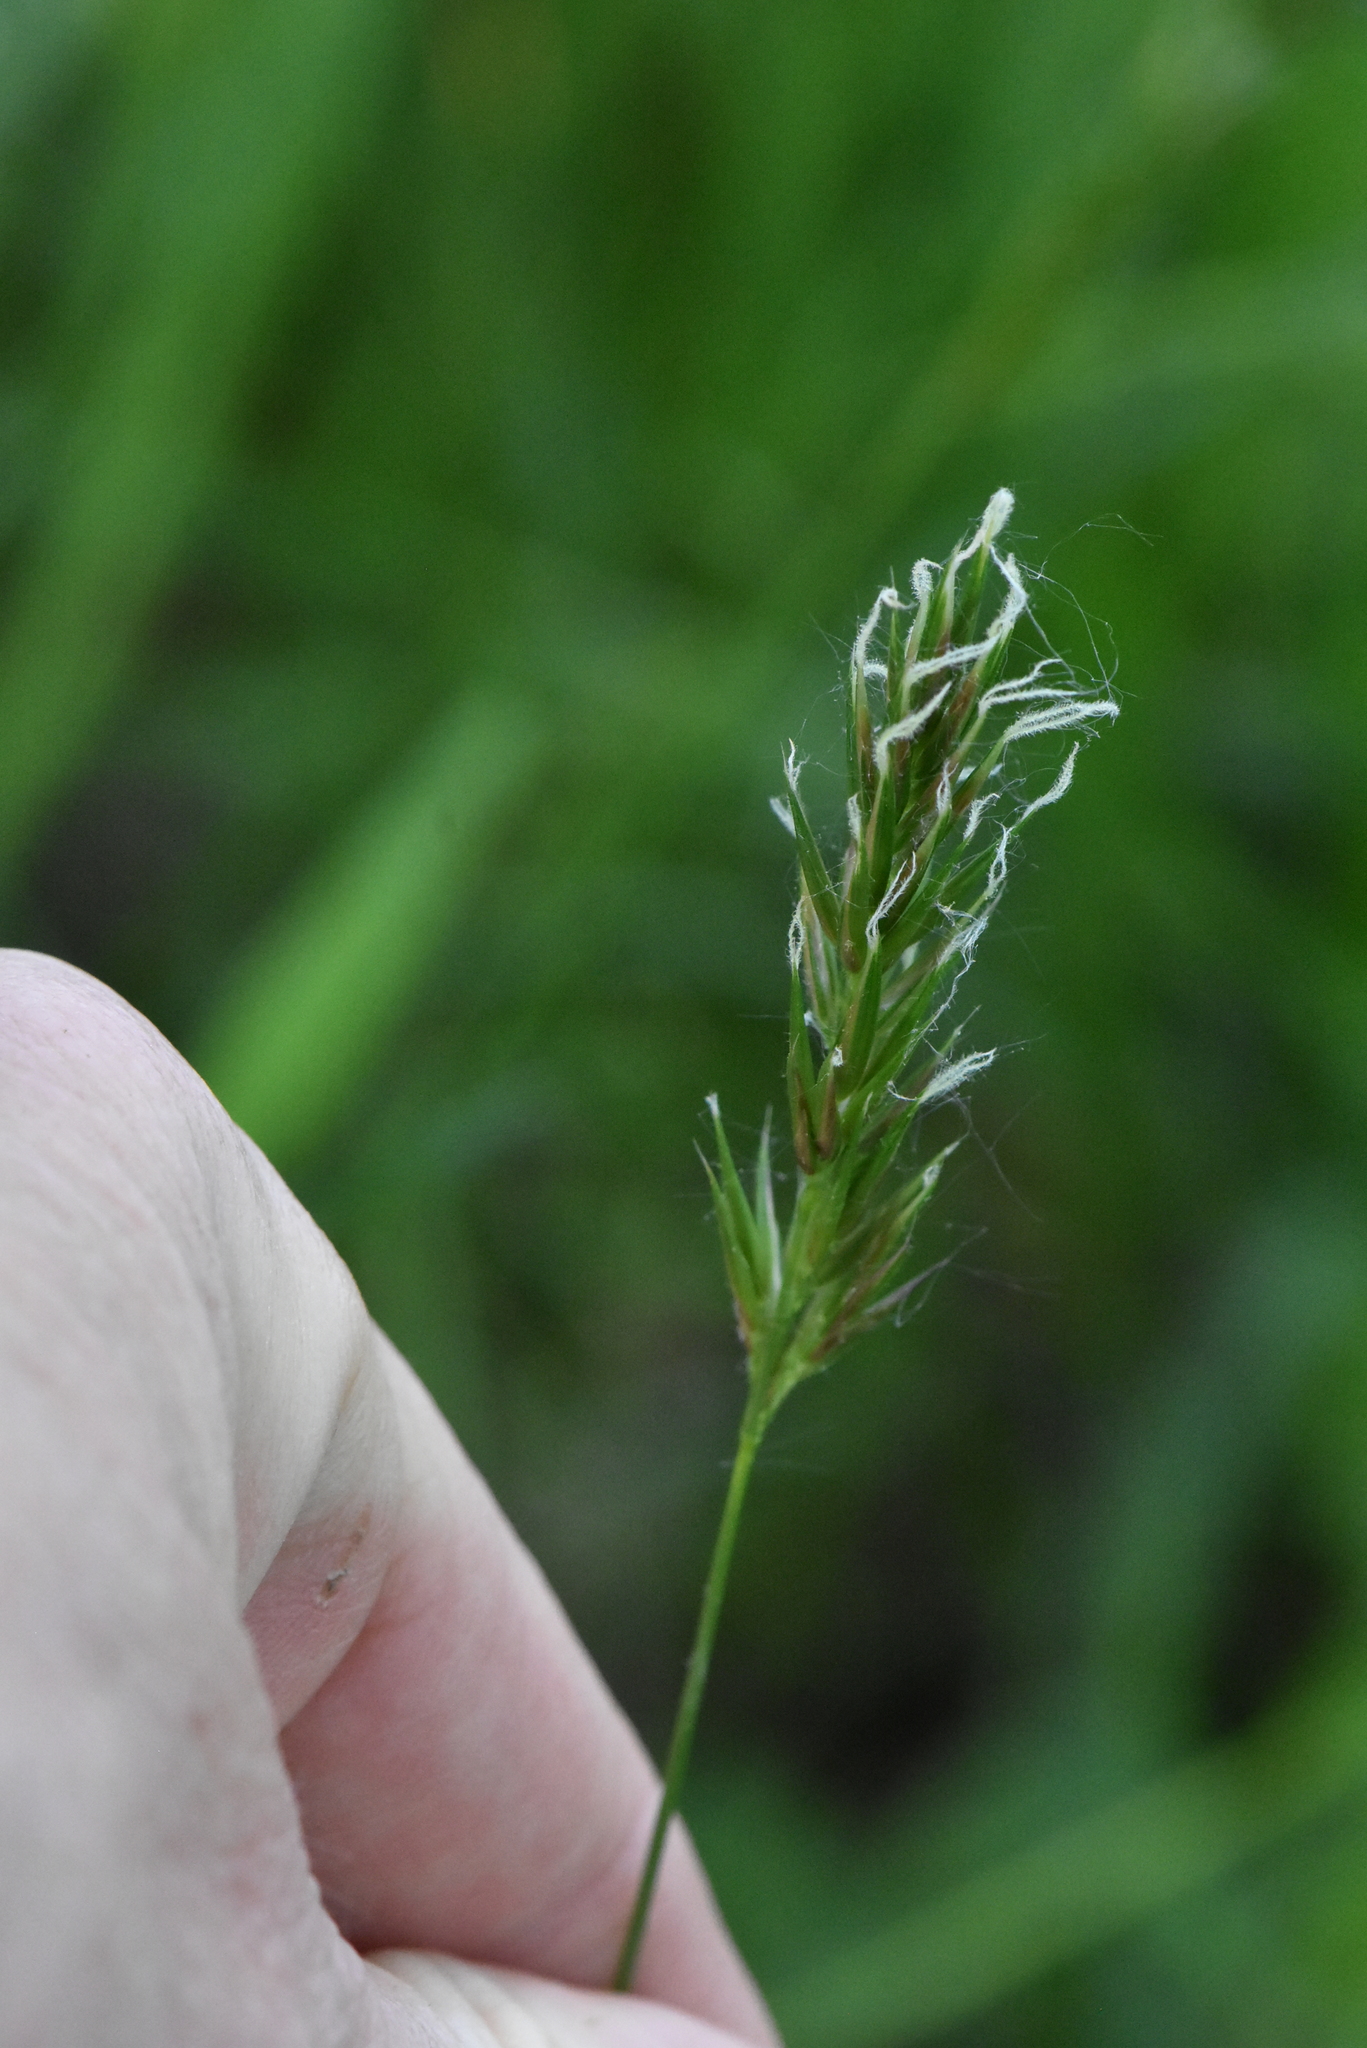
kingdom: Plantae
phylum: Tracheophyta
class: Liliopsida
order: Poales
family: Poaceae
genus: Anthoxanthum
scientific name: Anthoxanthum odoratum
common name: Sweet vernalgrass
